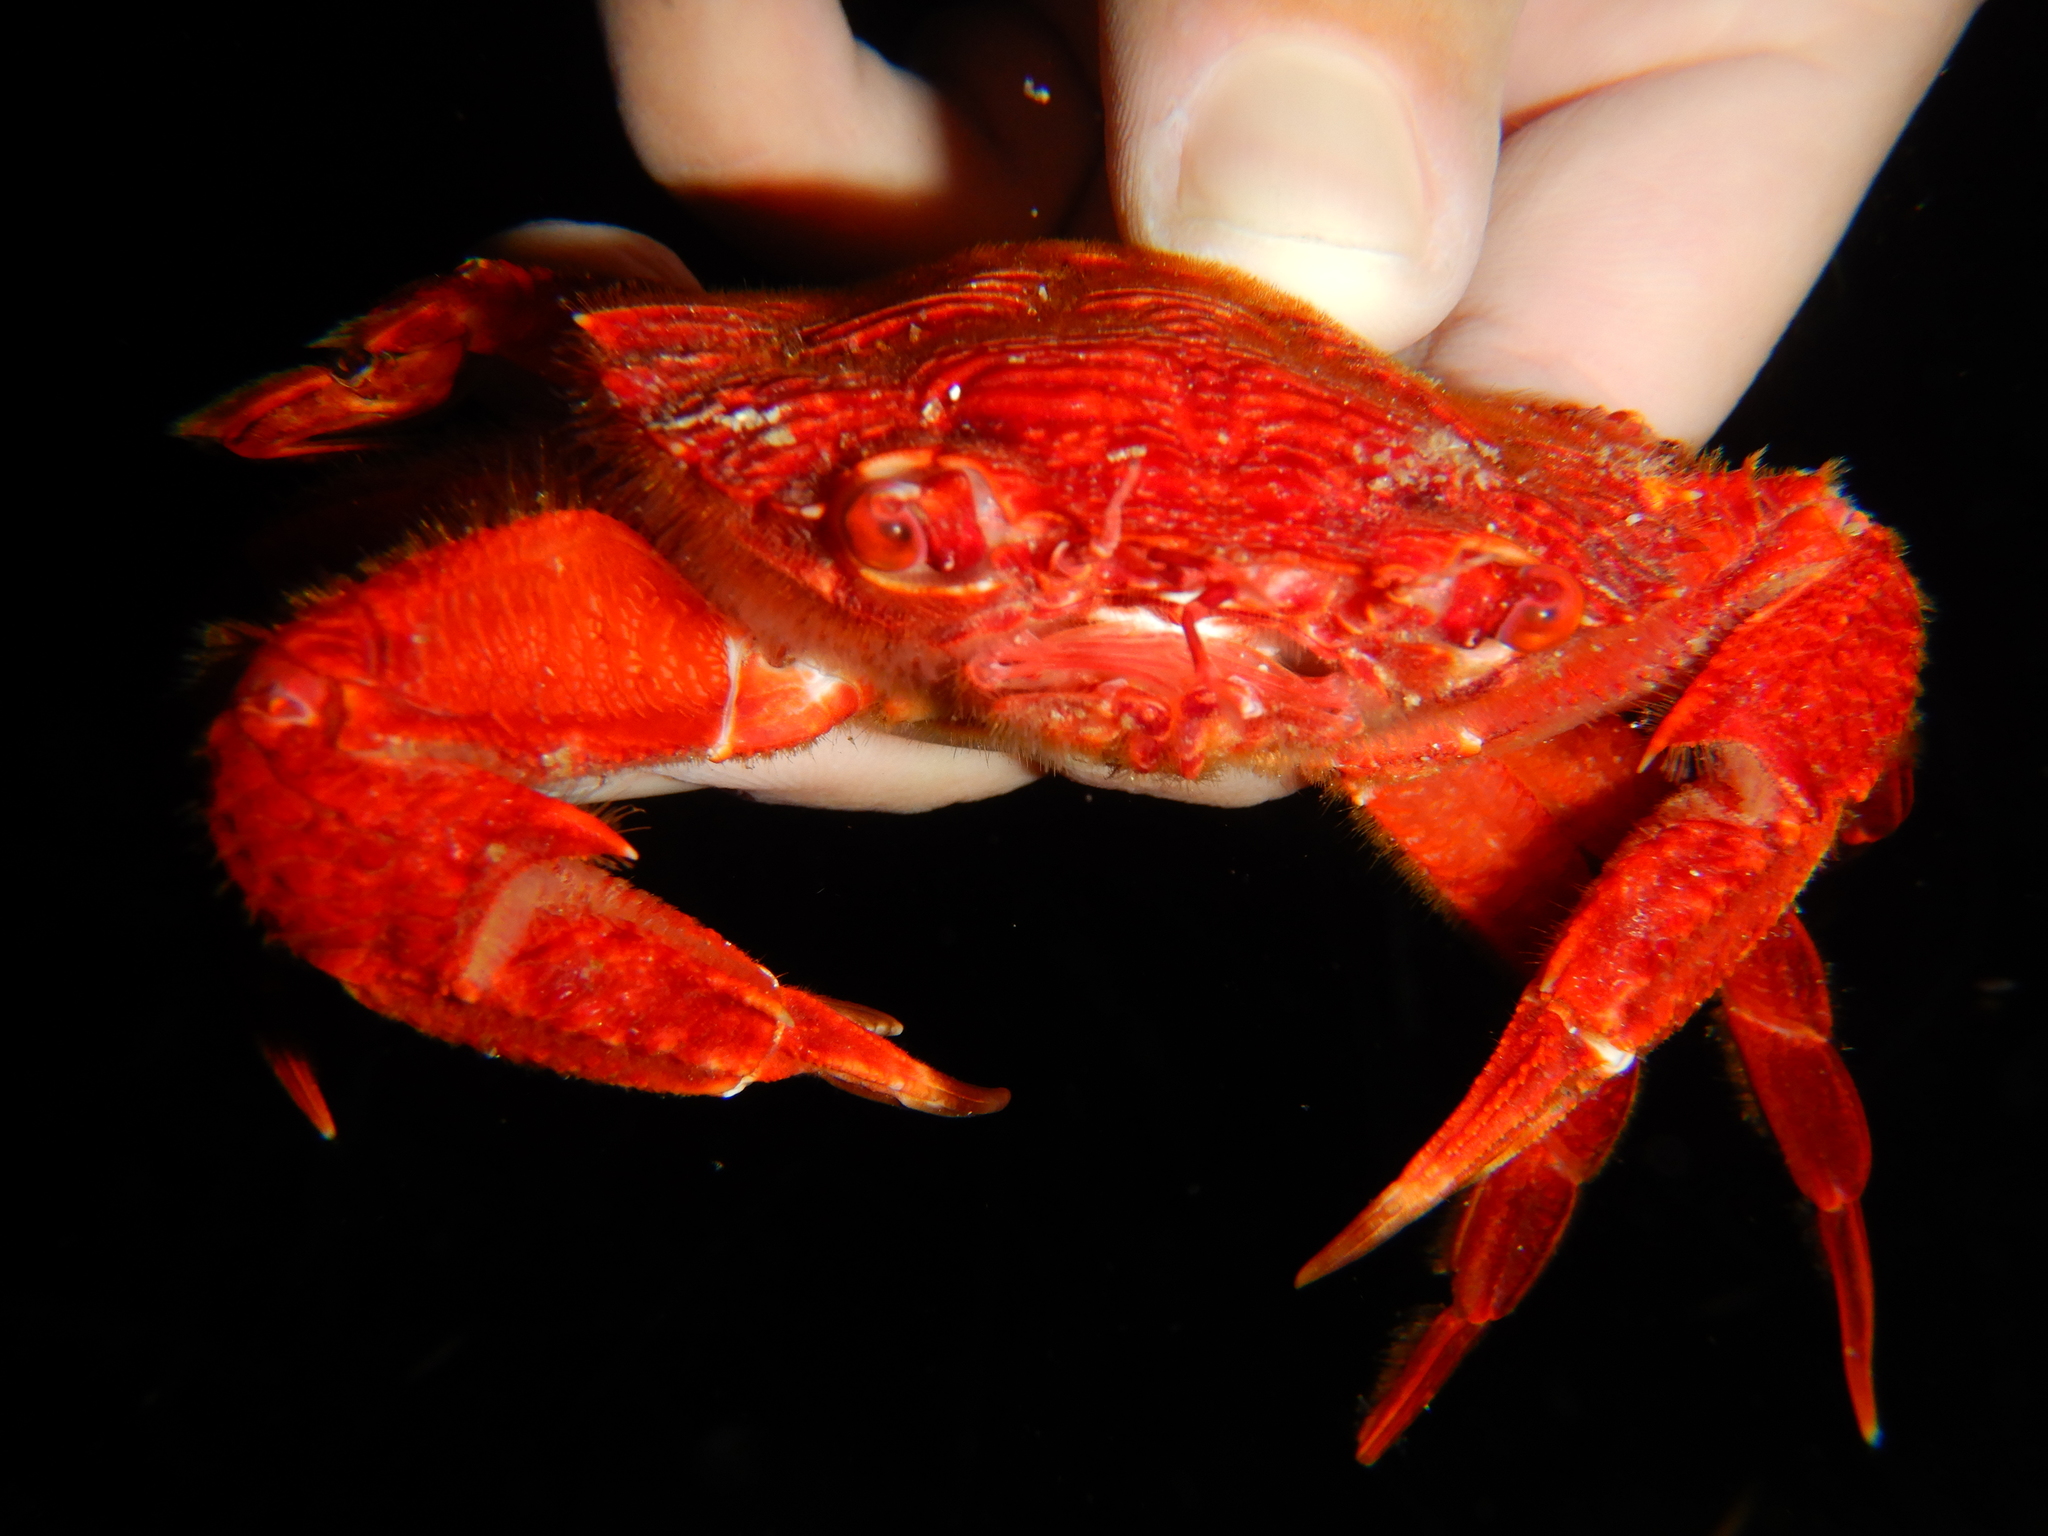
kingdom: Animalia
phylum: Arthropoda
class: Malacostraca
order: Decapoda
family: Polybiidae
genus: Liocarcinus
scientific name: Liocarcinus corrugatus
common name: Wrinkled swimming crab
